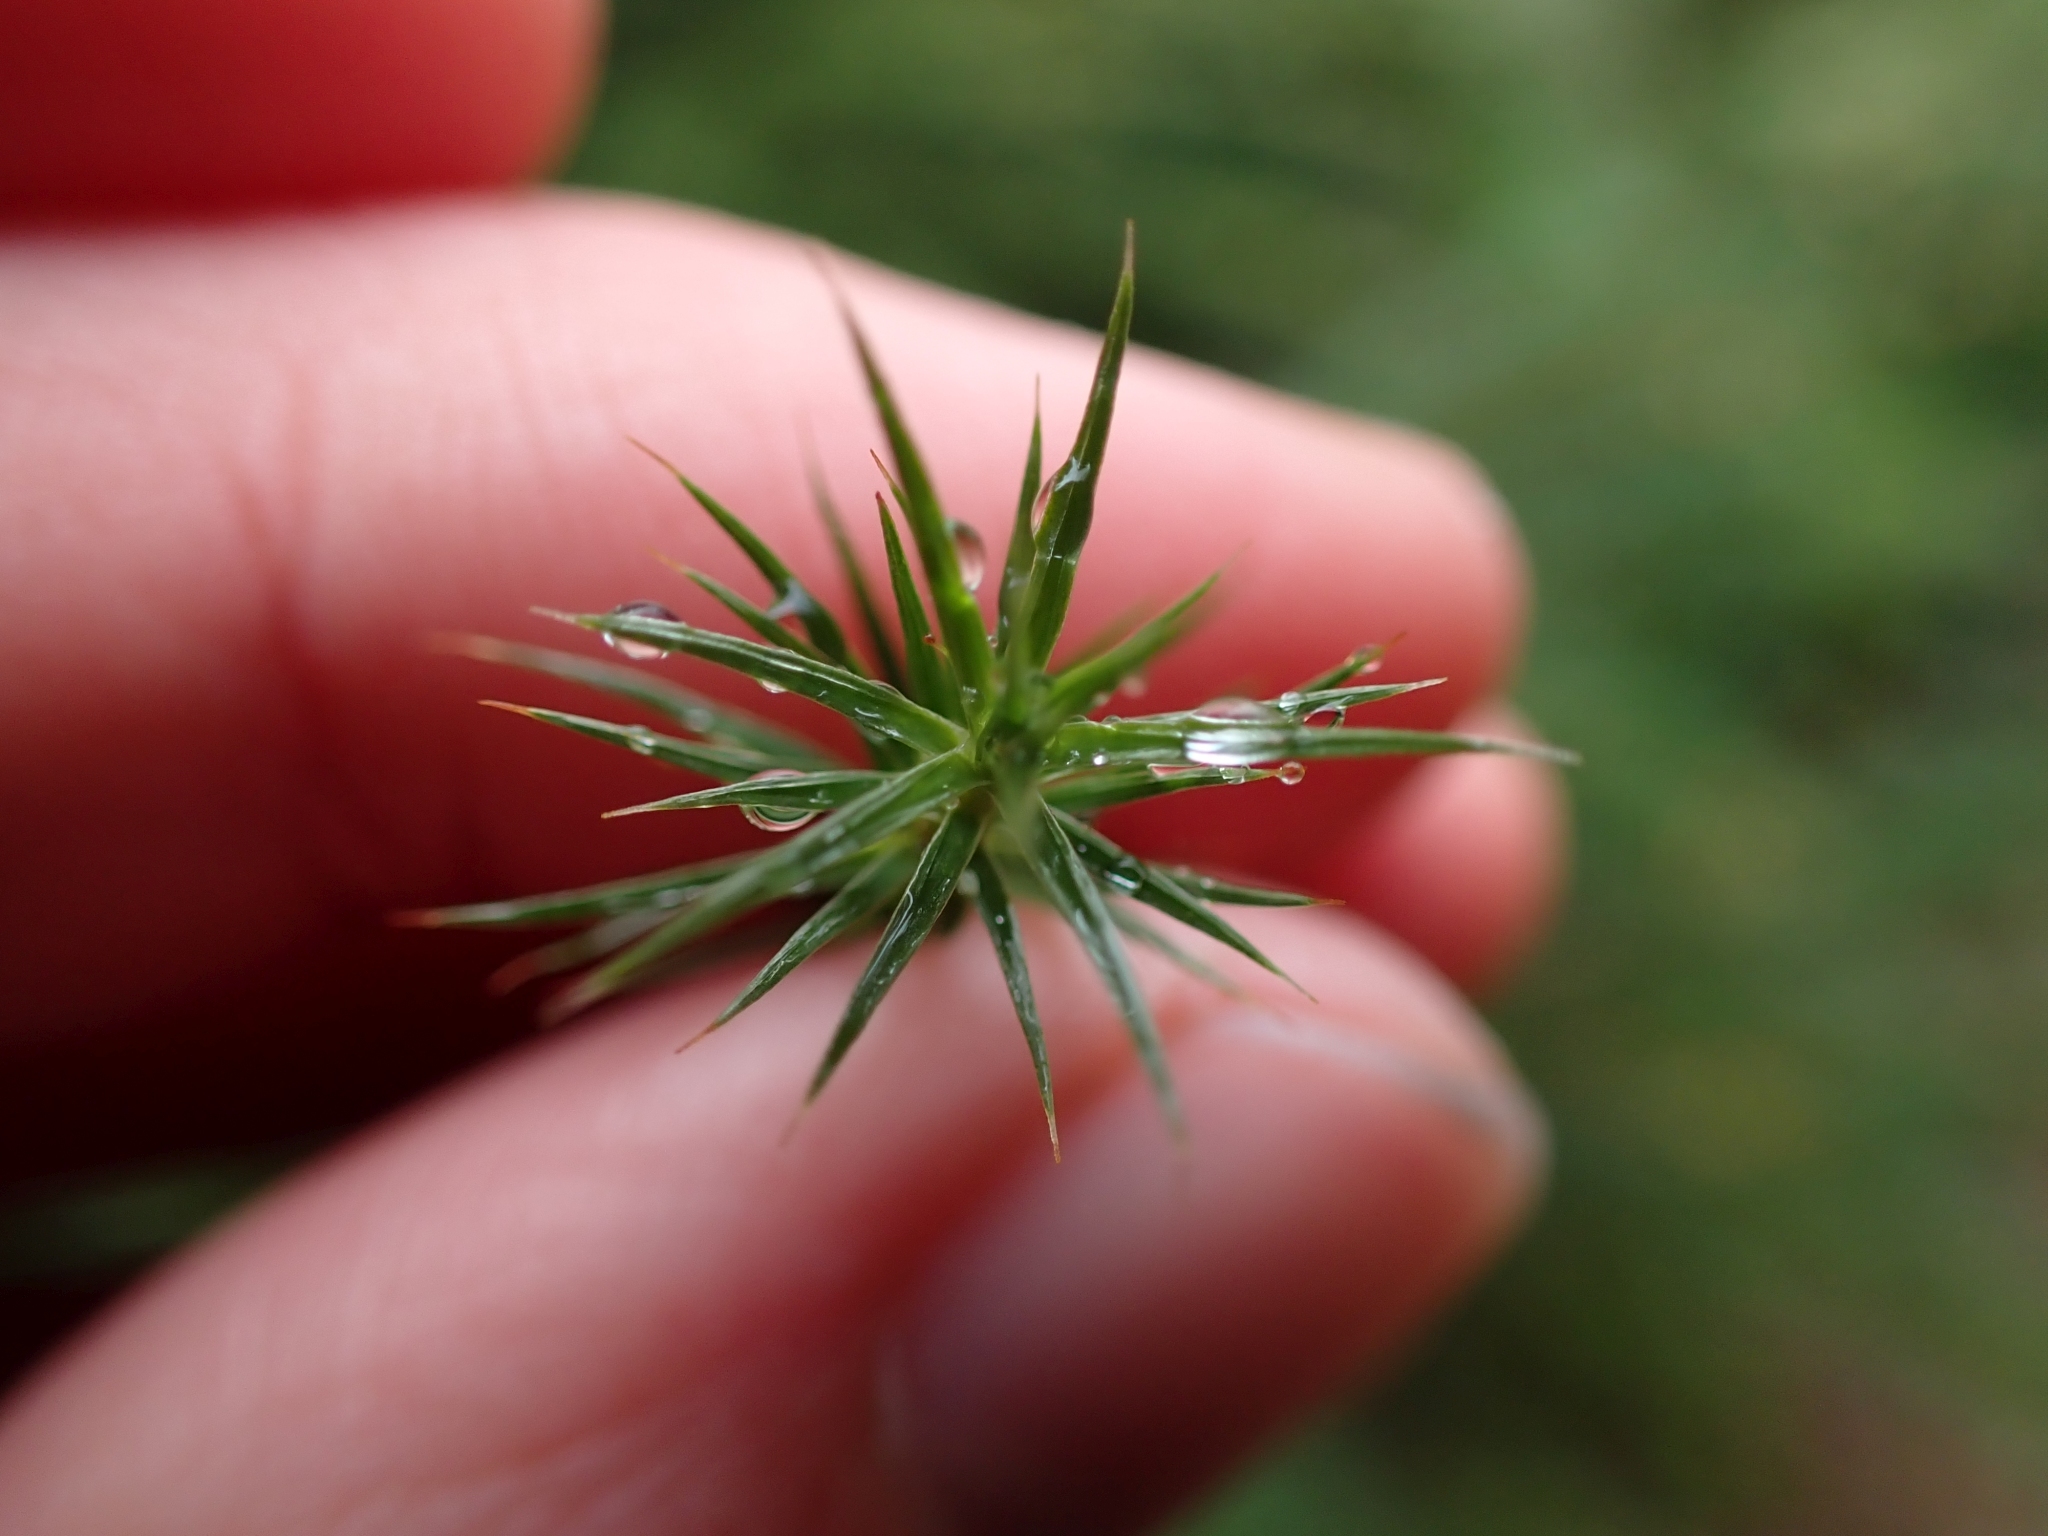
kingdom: Plantae
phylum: Bryophyta
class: Polytrichopsida
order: Polytrichales
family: Polytrichaceae
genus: Polytrichum
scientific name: Polytrichum juniperinum
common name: Juniper haircap moss
